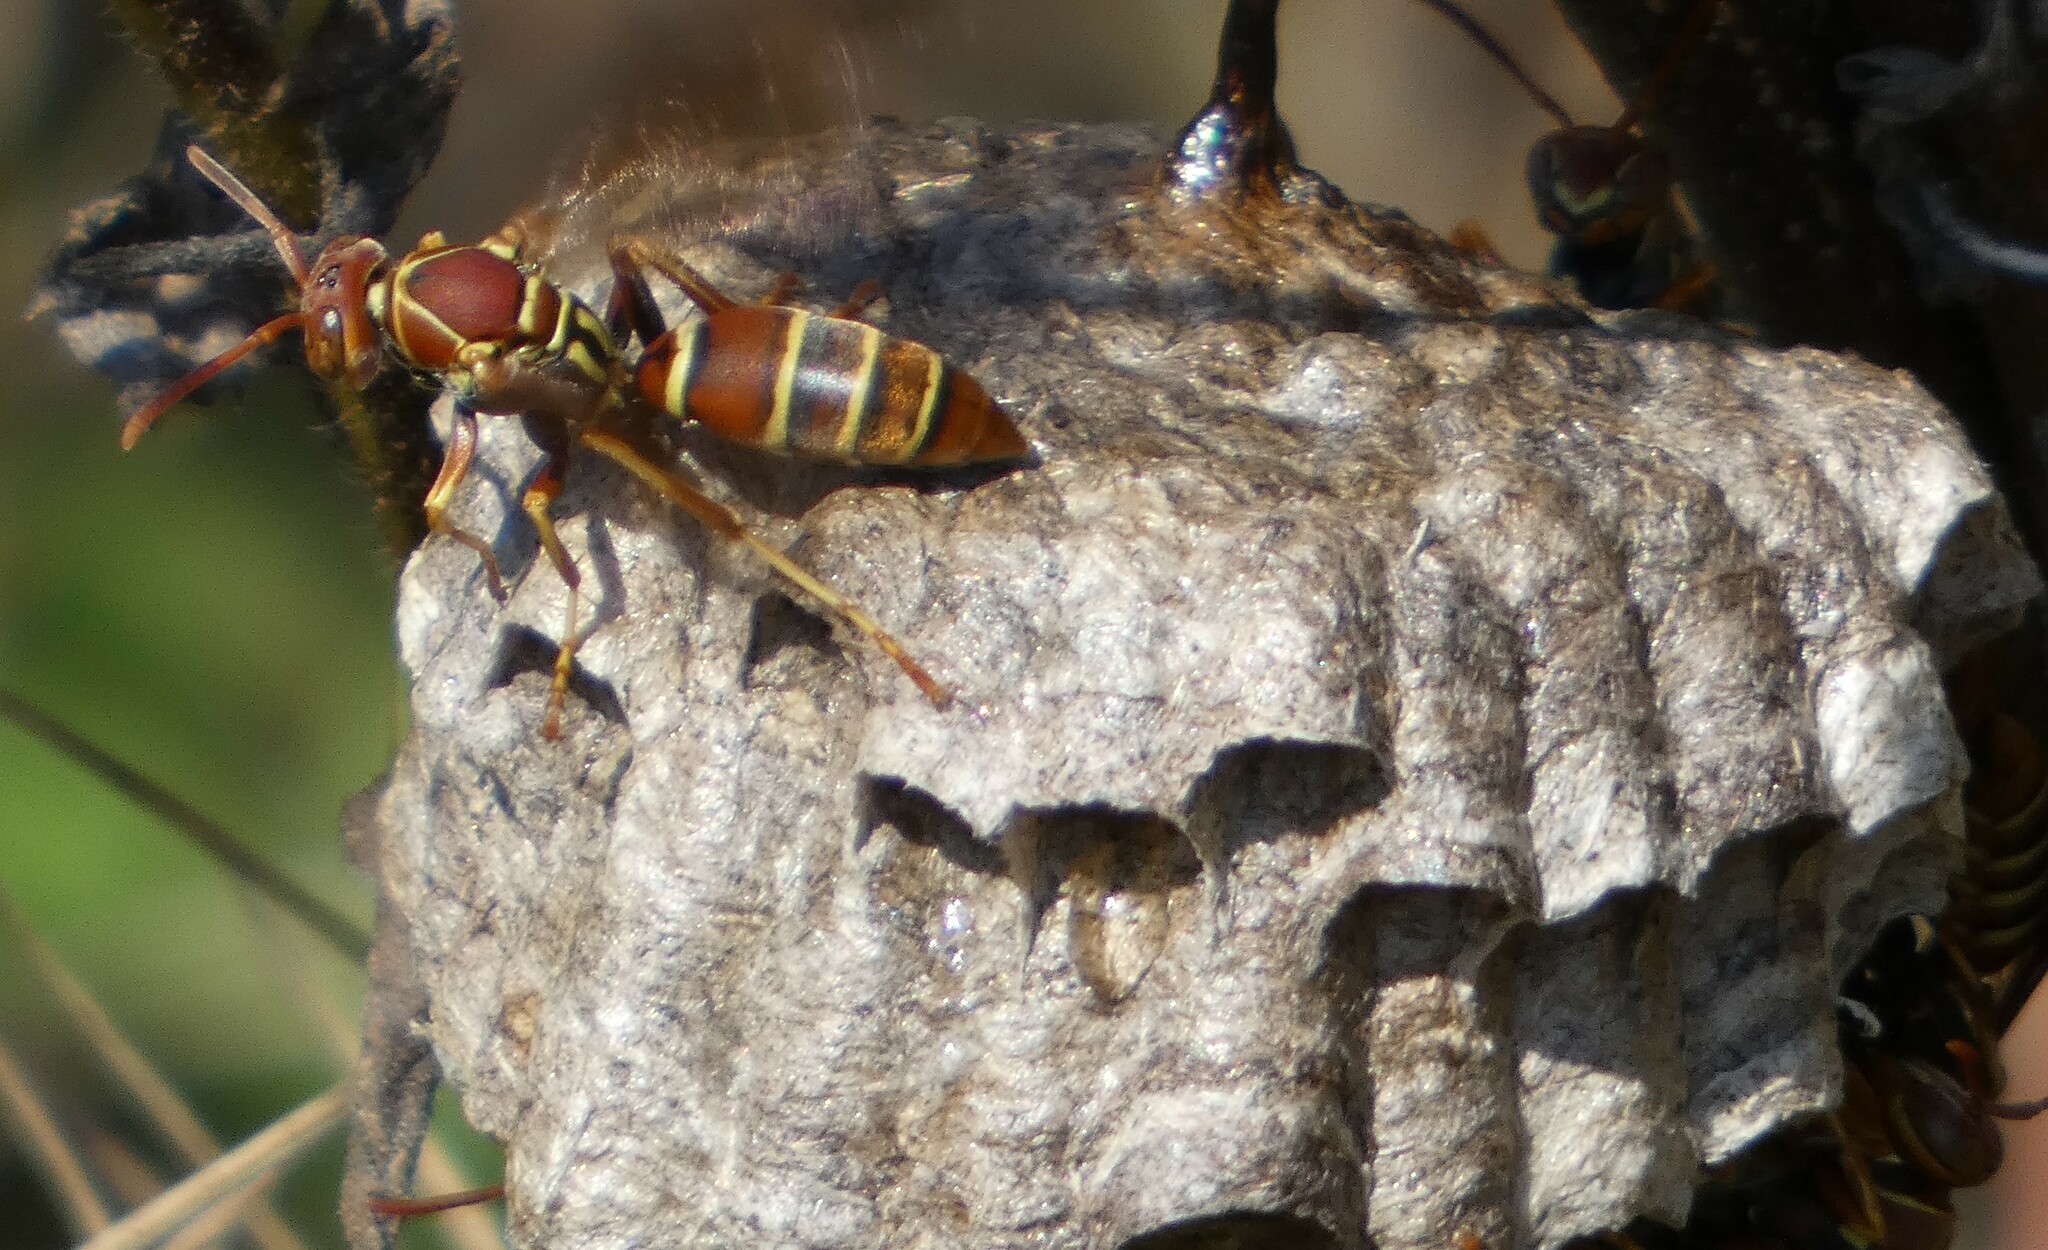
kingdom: Animalia
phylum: Arthropoda
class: Insecta
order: Hymenoptera
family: Eumenidae
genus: Polistes
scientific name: Polistes dorsalis
